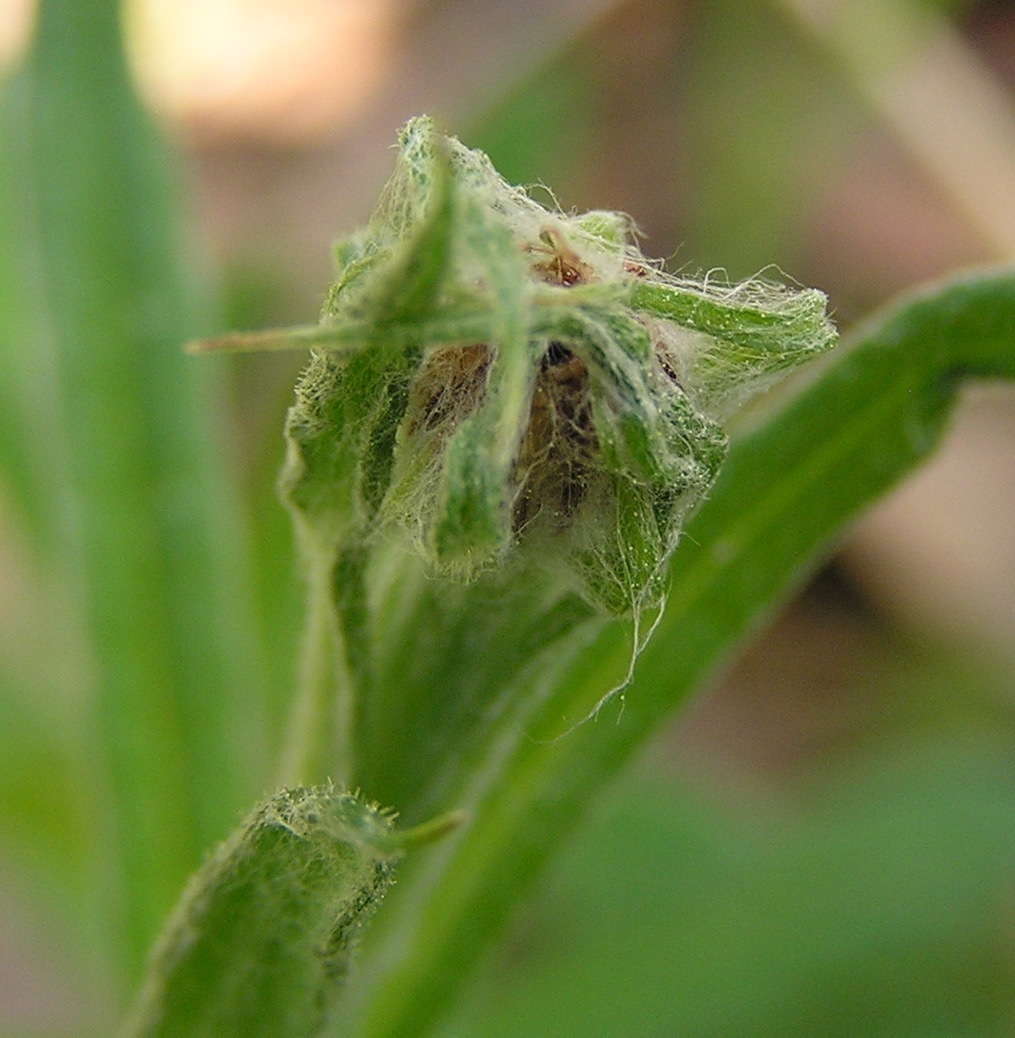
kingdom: Plantae
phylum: Tracheophyta
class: Magnoliopsida
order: Asterales
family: Asteraceae
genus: Coronidium
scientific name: Coronidium scorpioides
